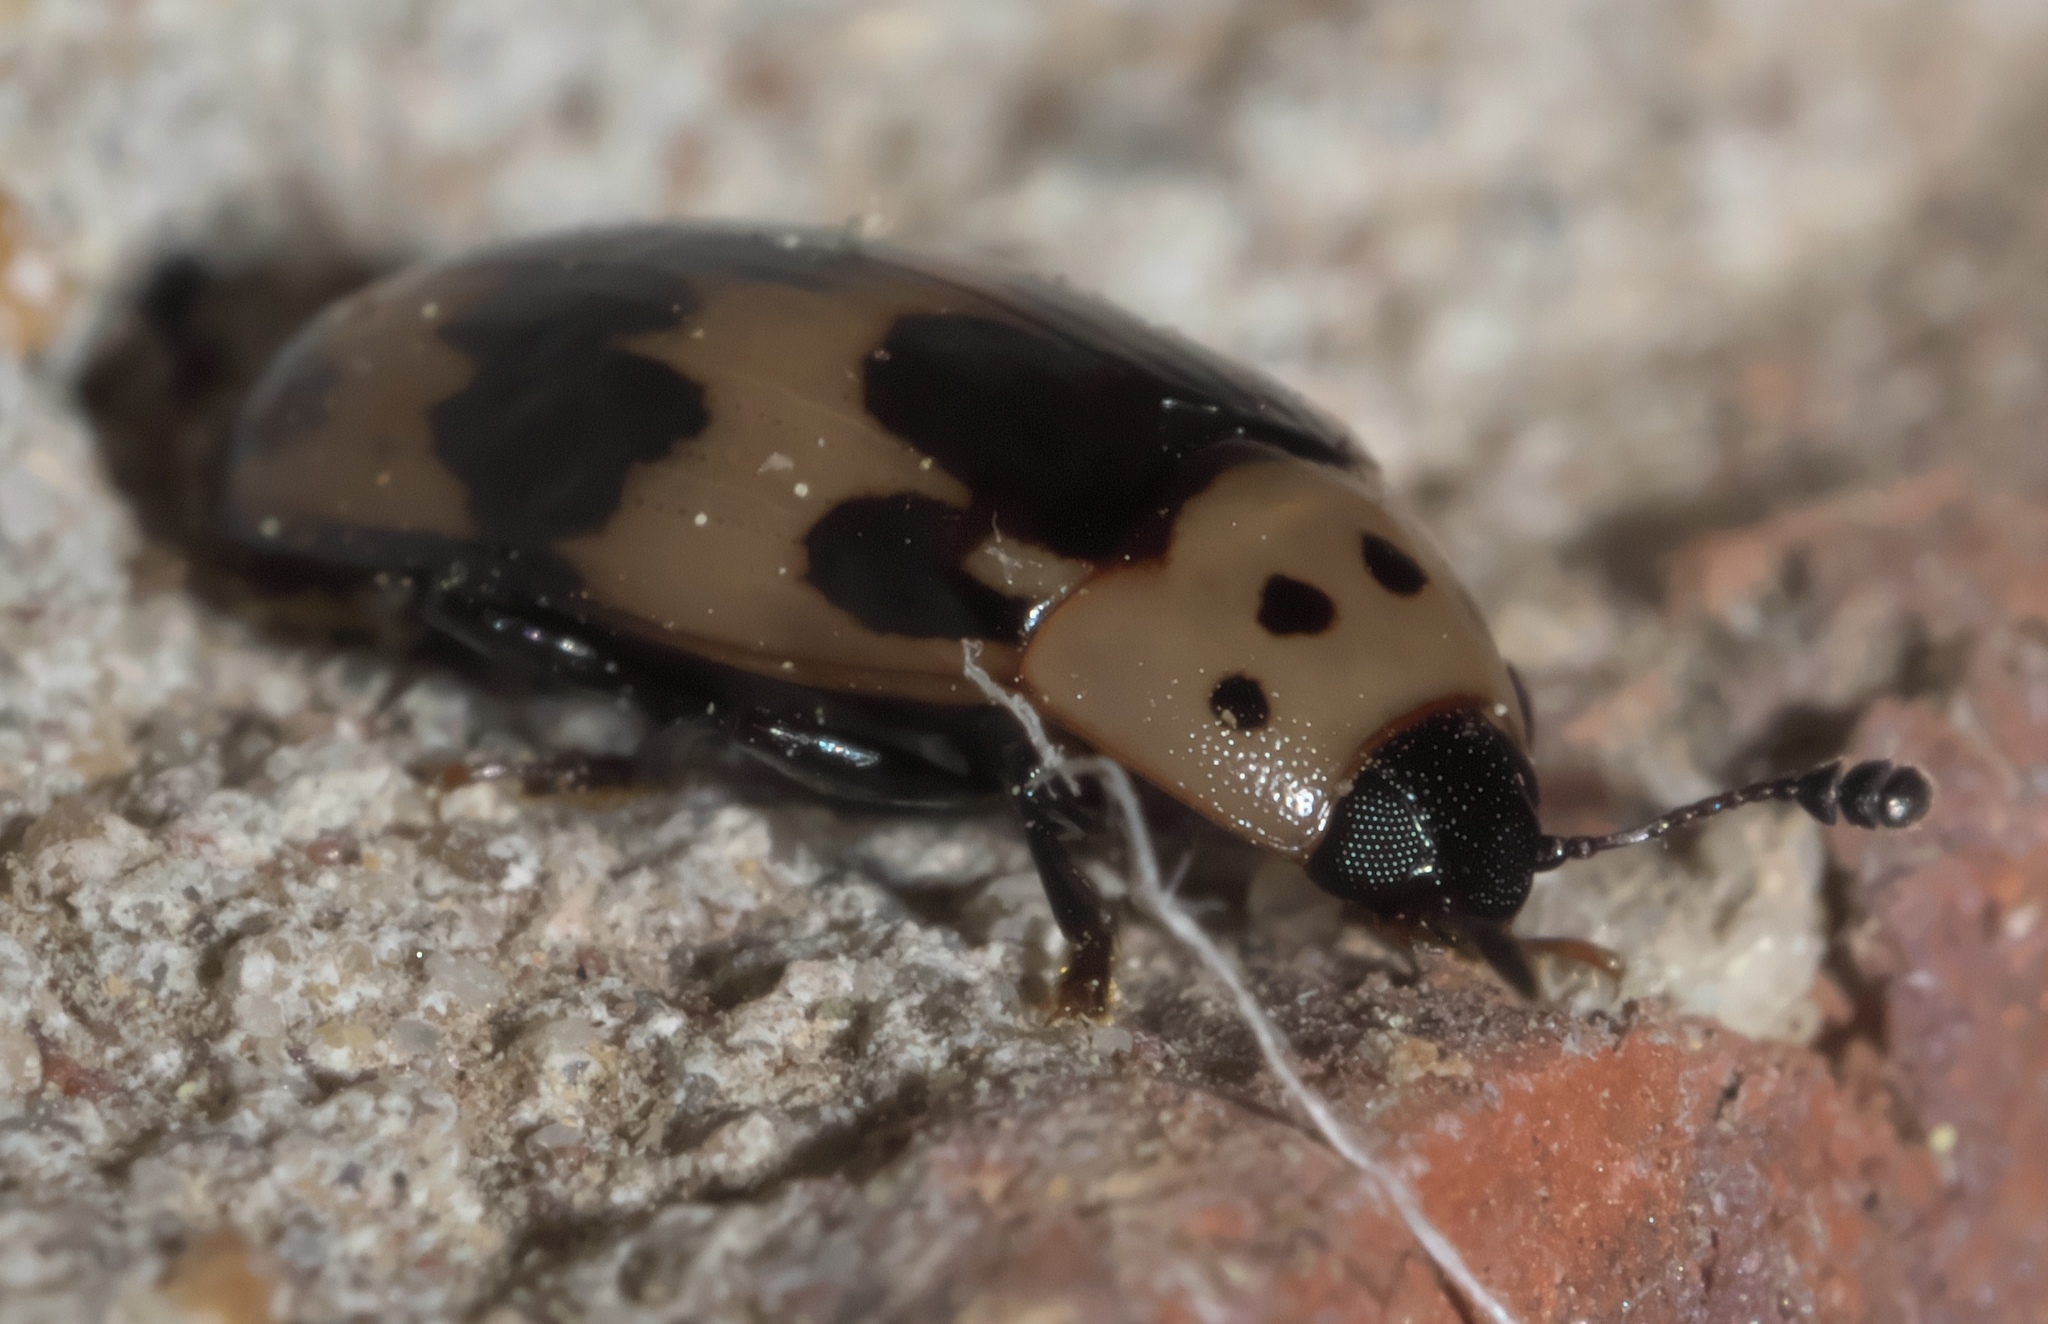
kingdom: Animalia
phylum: Arthropoda
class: Insecta
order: Coleoptera
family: Erotylidae
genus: Ischyrus
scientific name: Ischyrus quadripunctatus
